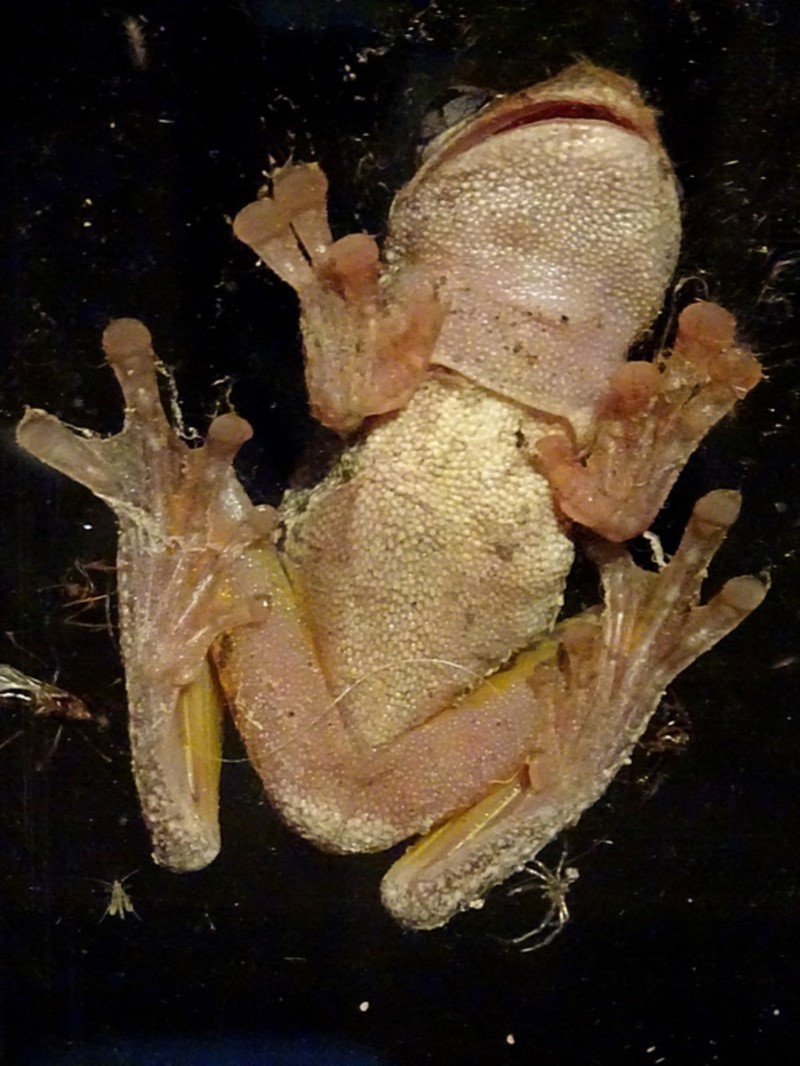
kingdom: Animalia
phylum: Chordata
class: Amphibia
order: Anura
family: Pelodryadidae
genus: Litoria
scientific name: Litoria peronii
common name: Emerald spotted treefrog
